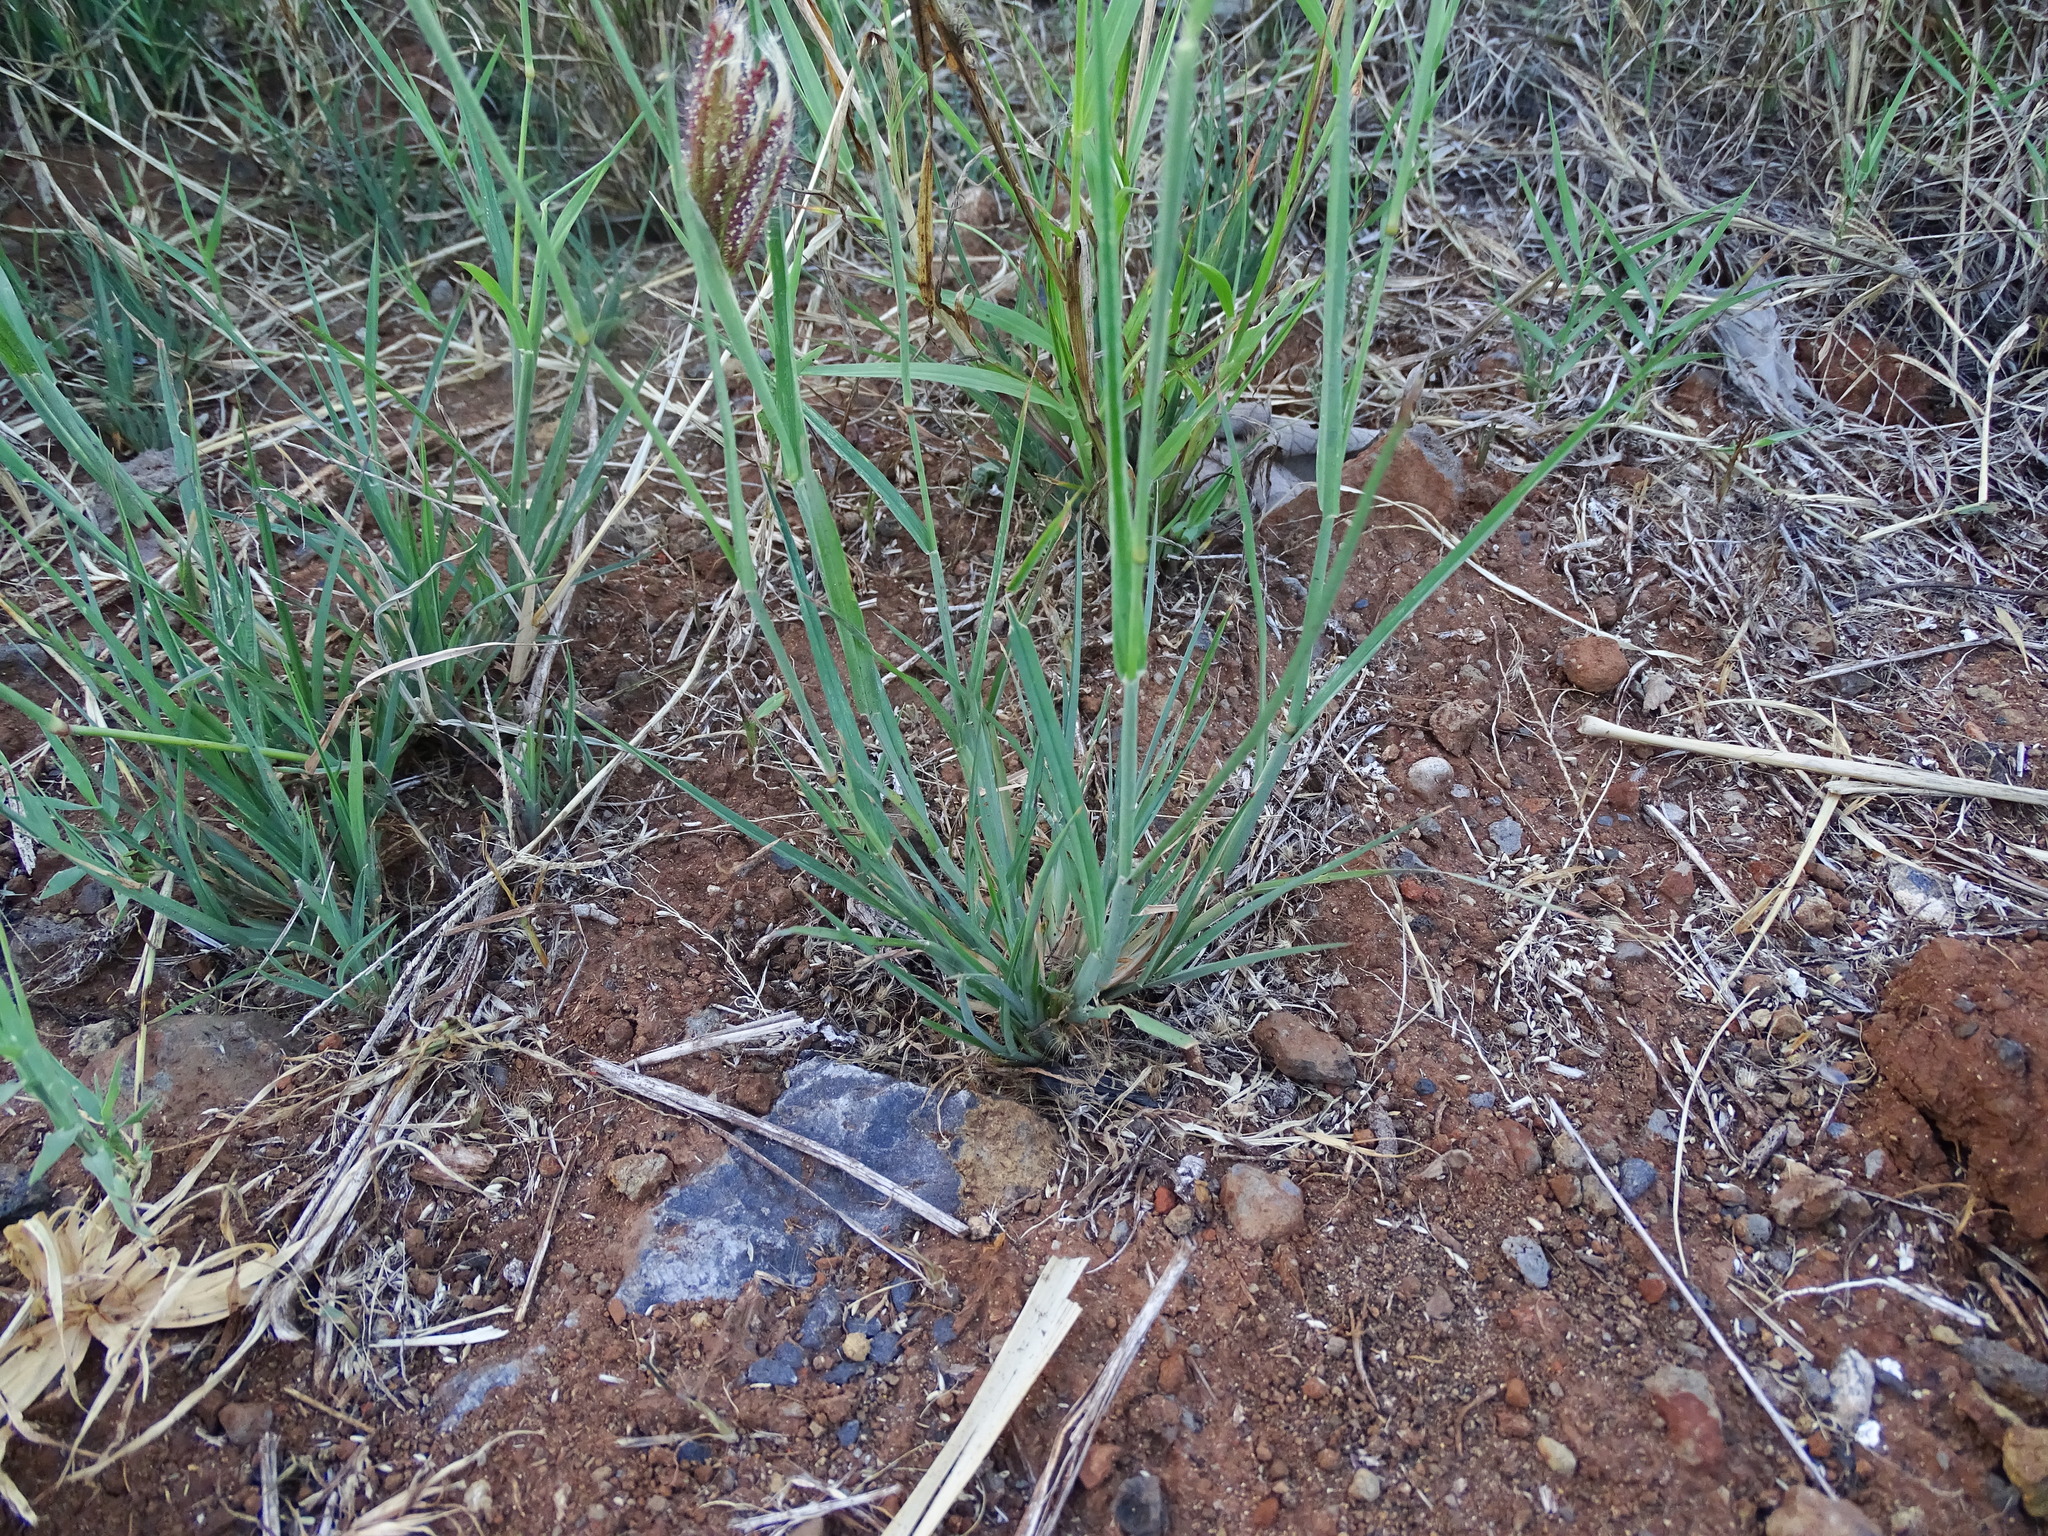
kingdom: Plantae
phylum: Tracheophyta
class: Liliopsida
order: Poales
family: Poaceae
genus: Chloris
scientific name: Chloris barbata
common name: Swollen fingergrass
